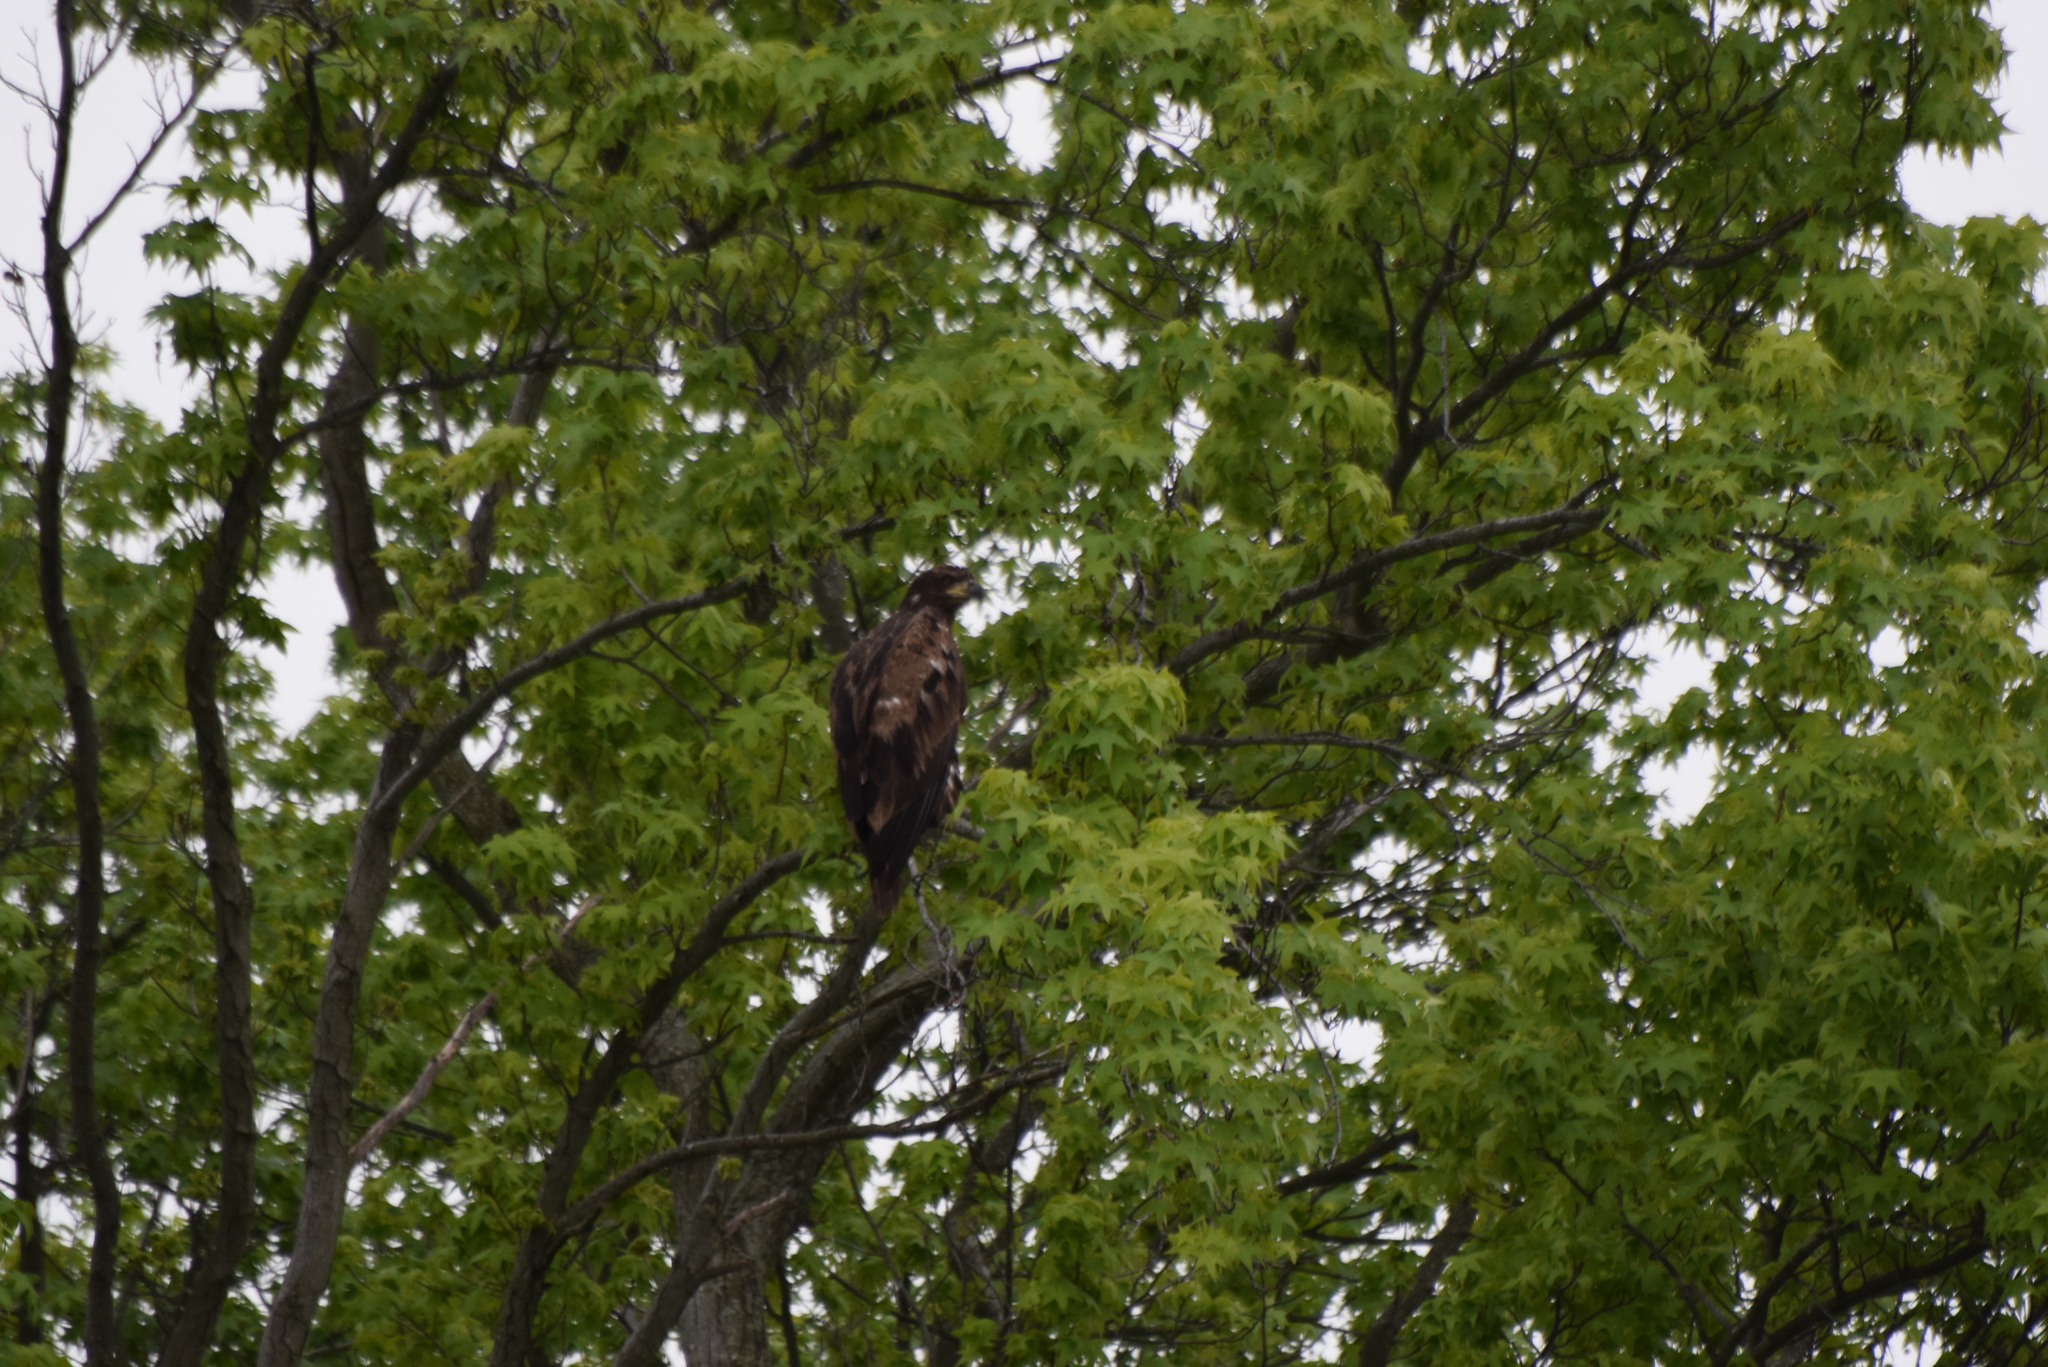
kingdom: Animalia
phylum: Chordata
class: Aves
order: Accipitriformes
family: Accipitridae
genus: Haliaeetus
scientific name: Haliaeetus leucocephalus
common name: Bald eagle
